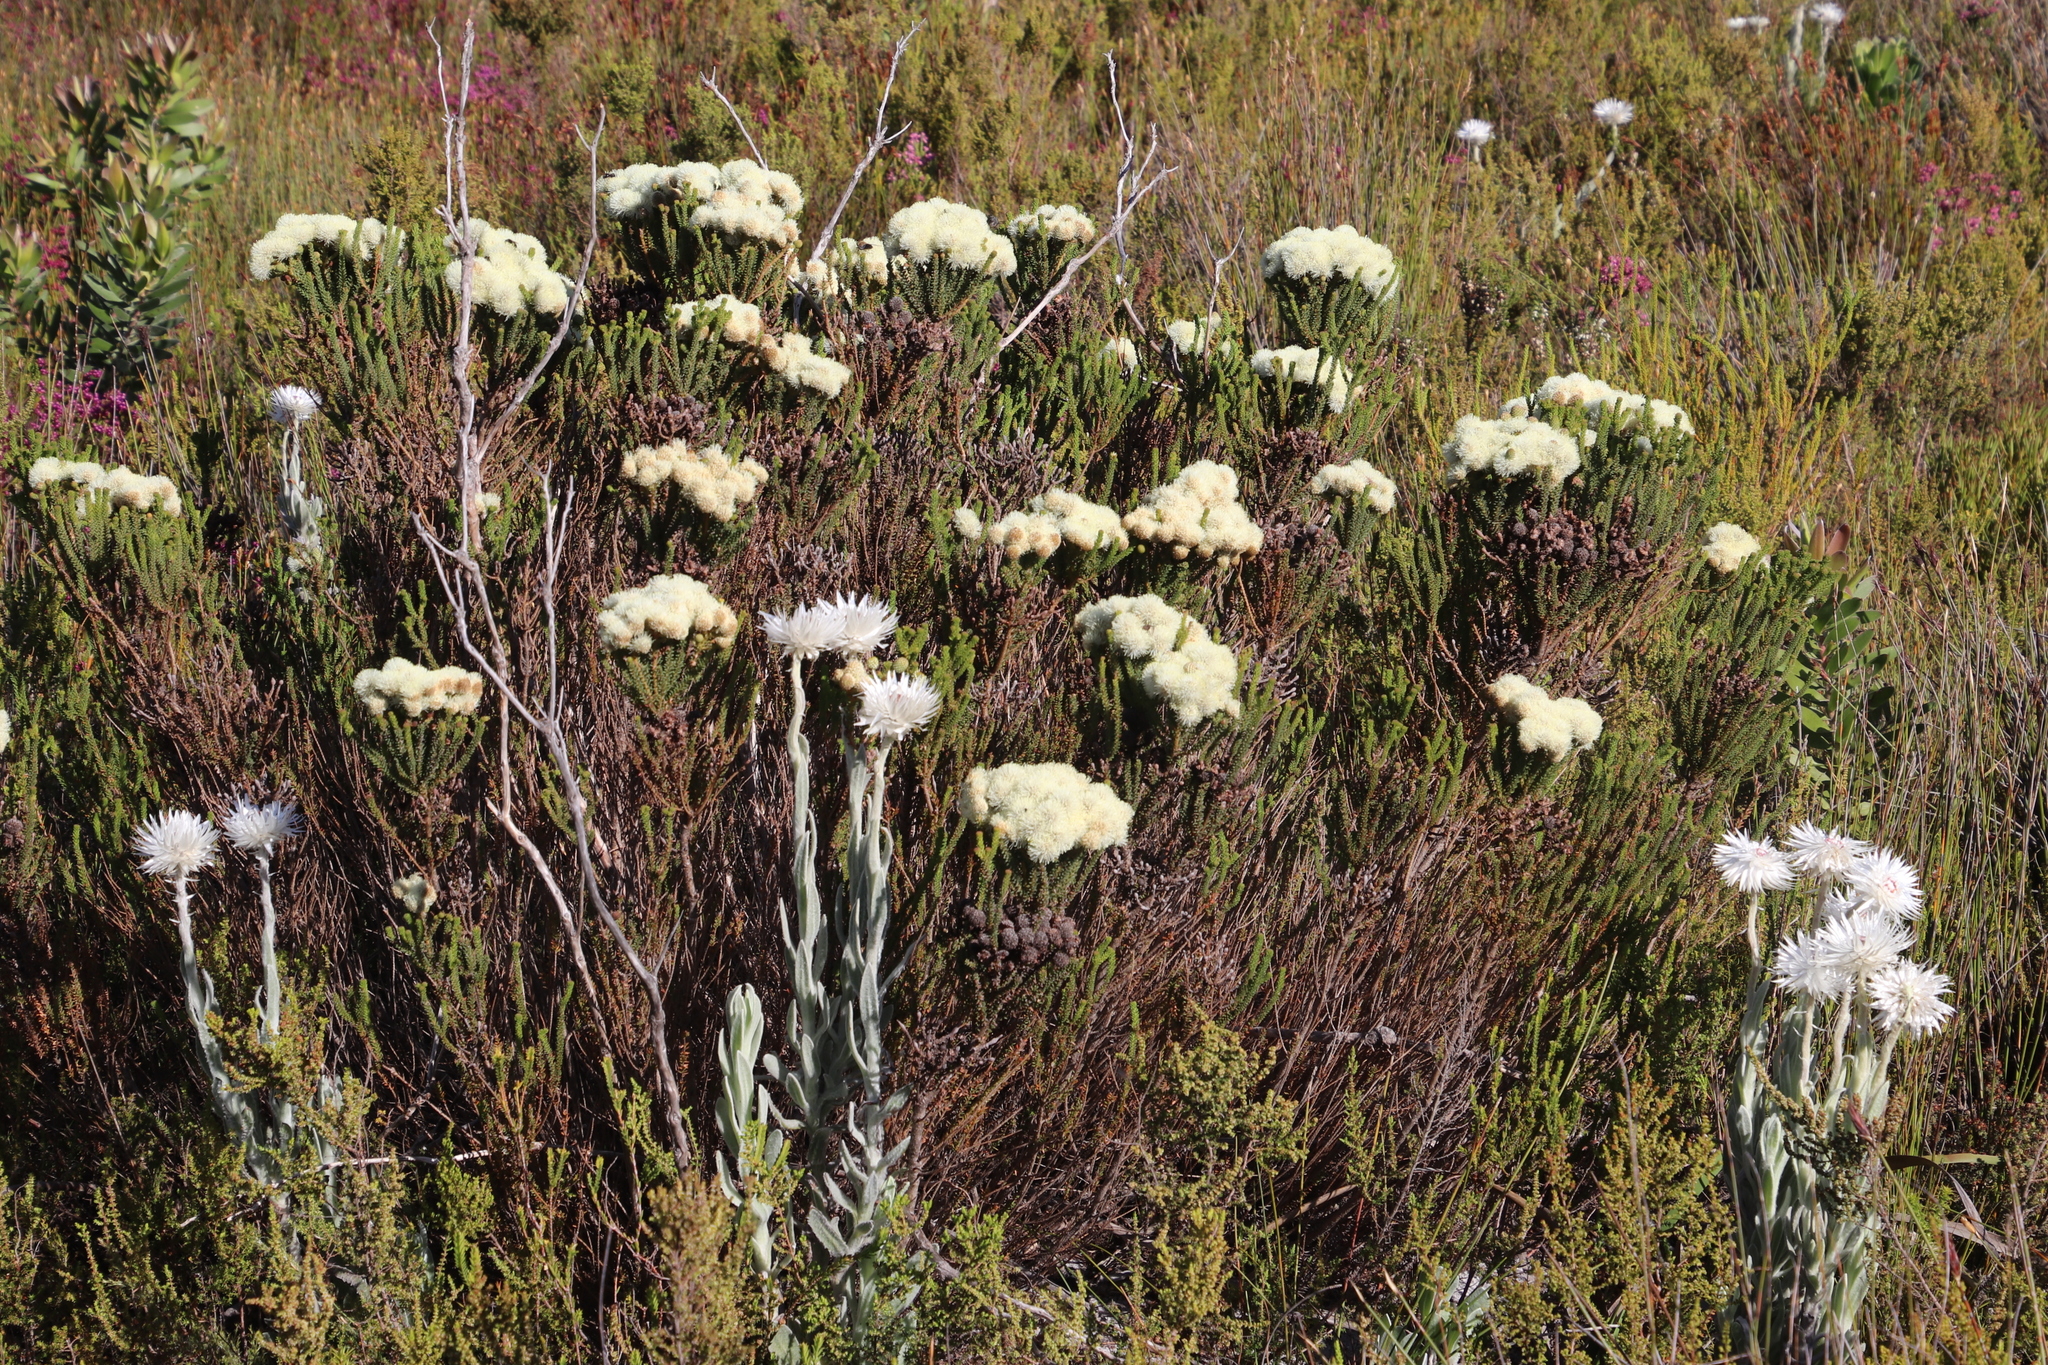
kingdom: Plantae
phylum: Tracheophyta
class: Magnoliopsida
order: Bruniales
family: Bruniaceae
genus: Berzelia
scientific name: Berzelia abrotanoides
